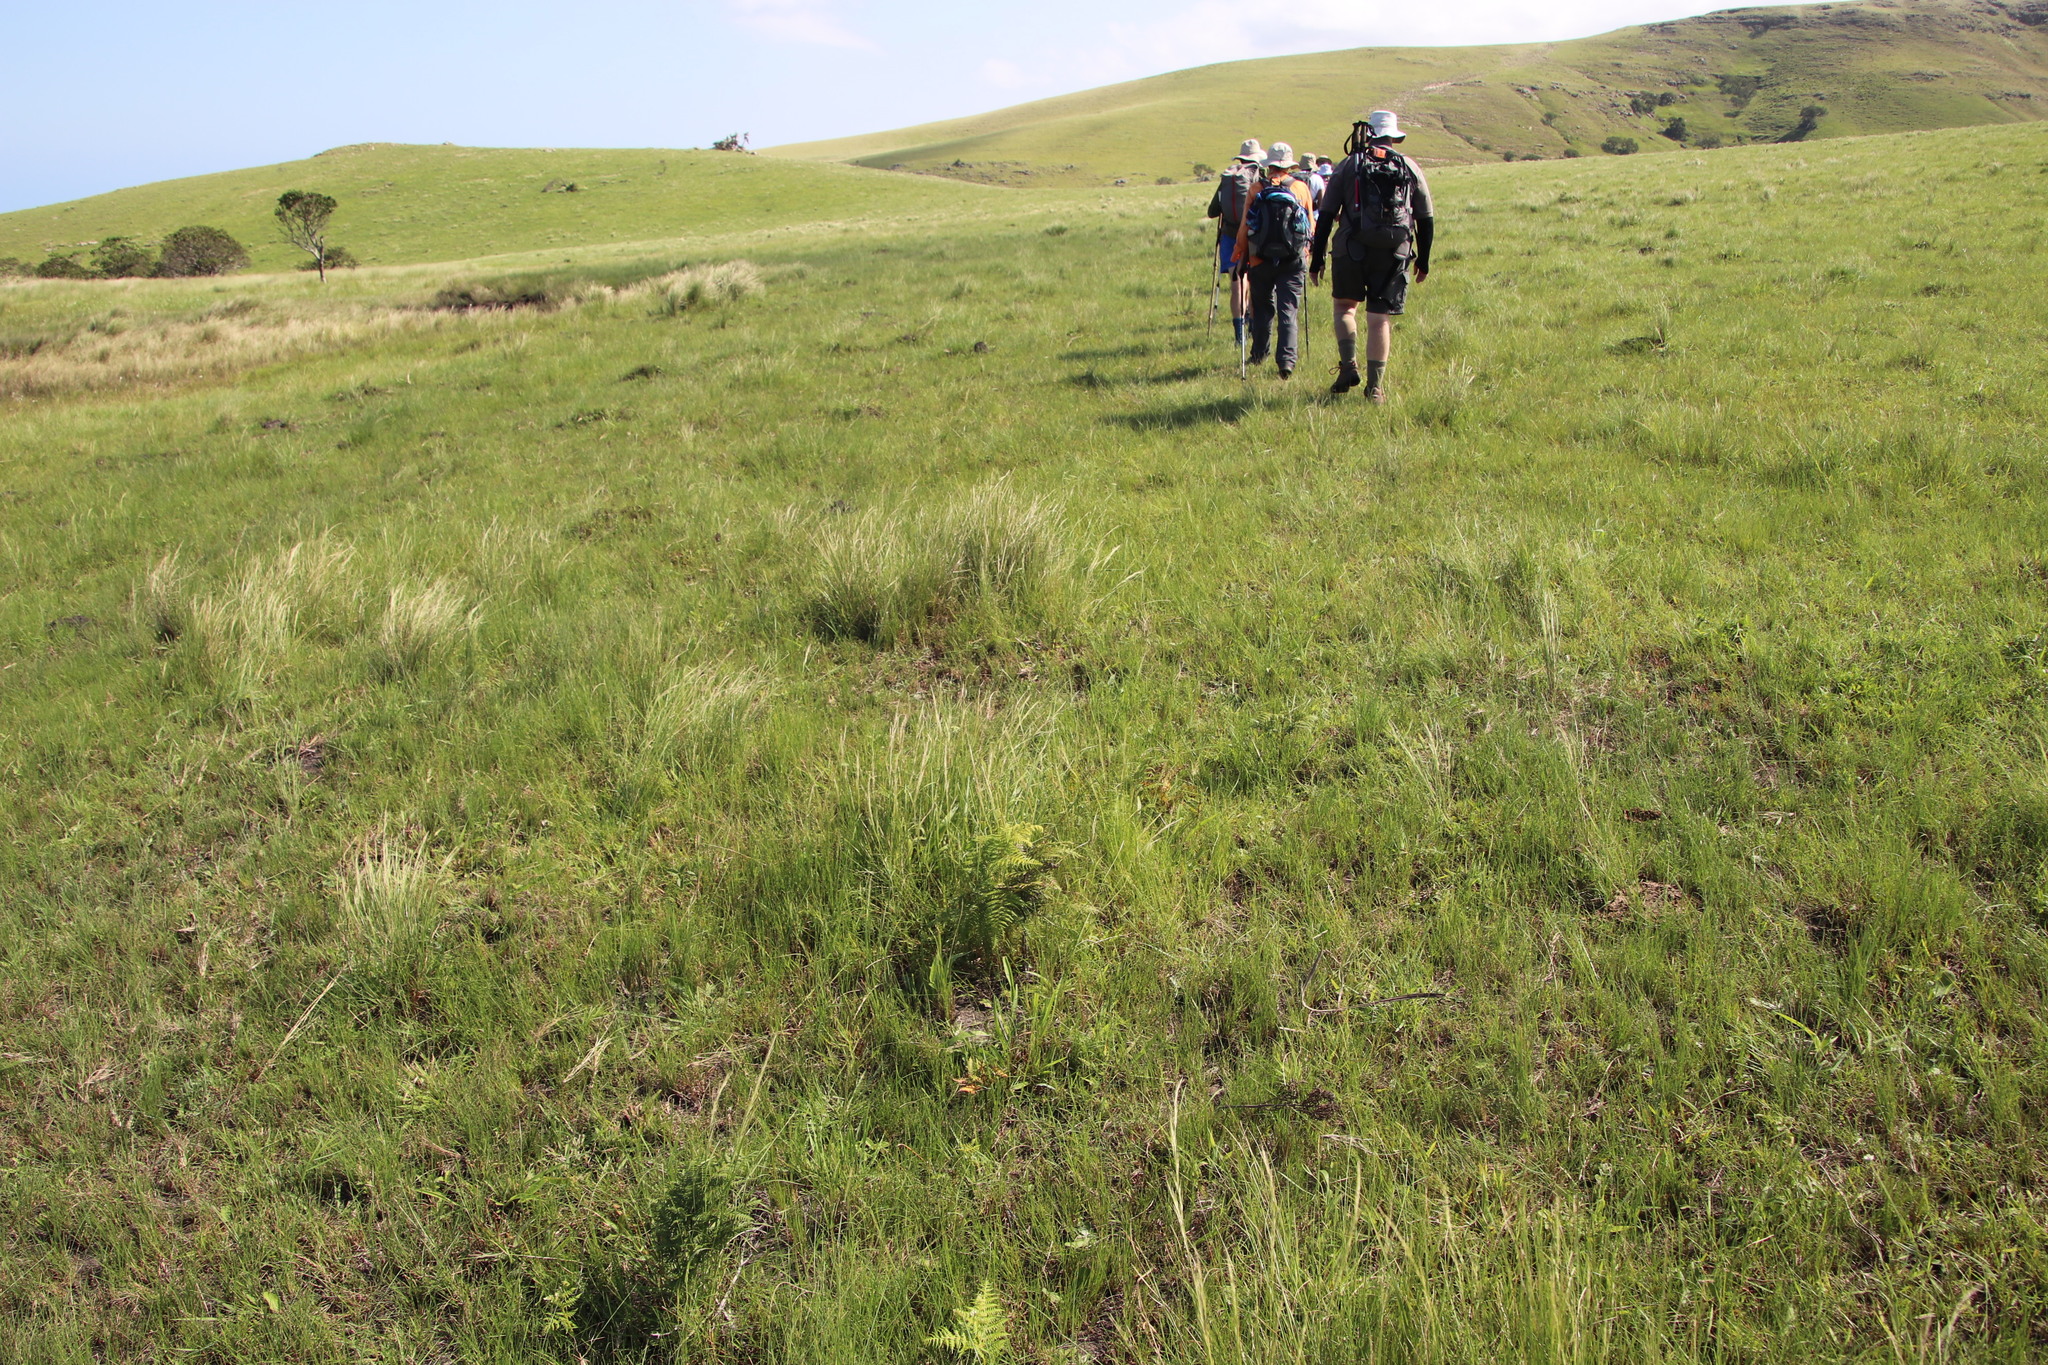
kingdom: Plantae
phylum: Tracheophyta
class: Polypodiopsida
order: Polypodiales
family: Dennstaedtiaceae
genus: Pteridium
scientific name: Pteridium aquilinum
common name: Bracken
